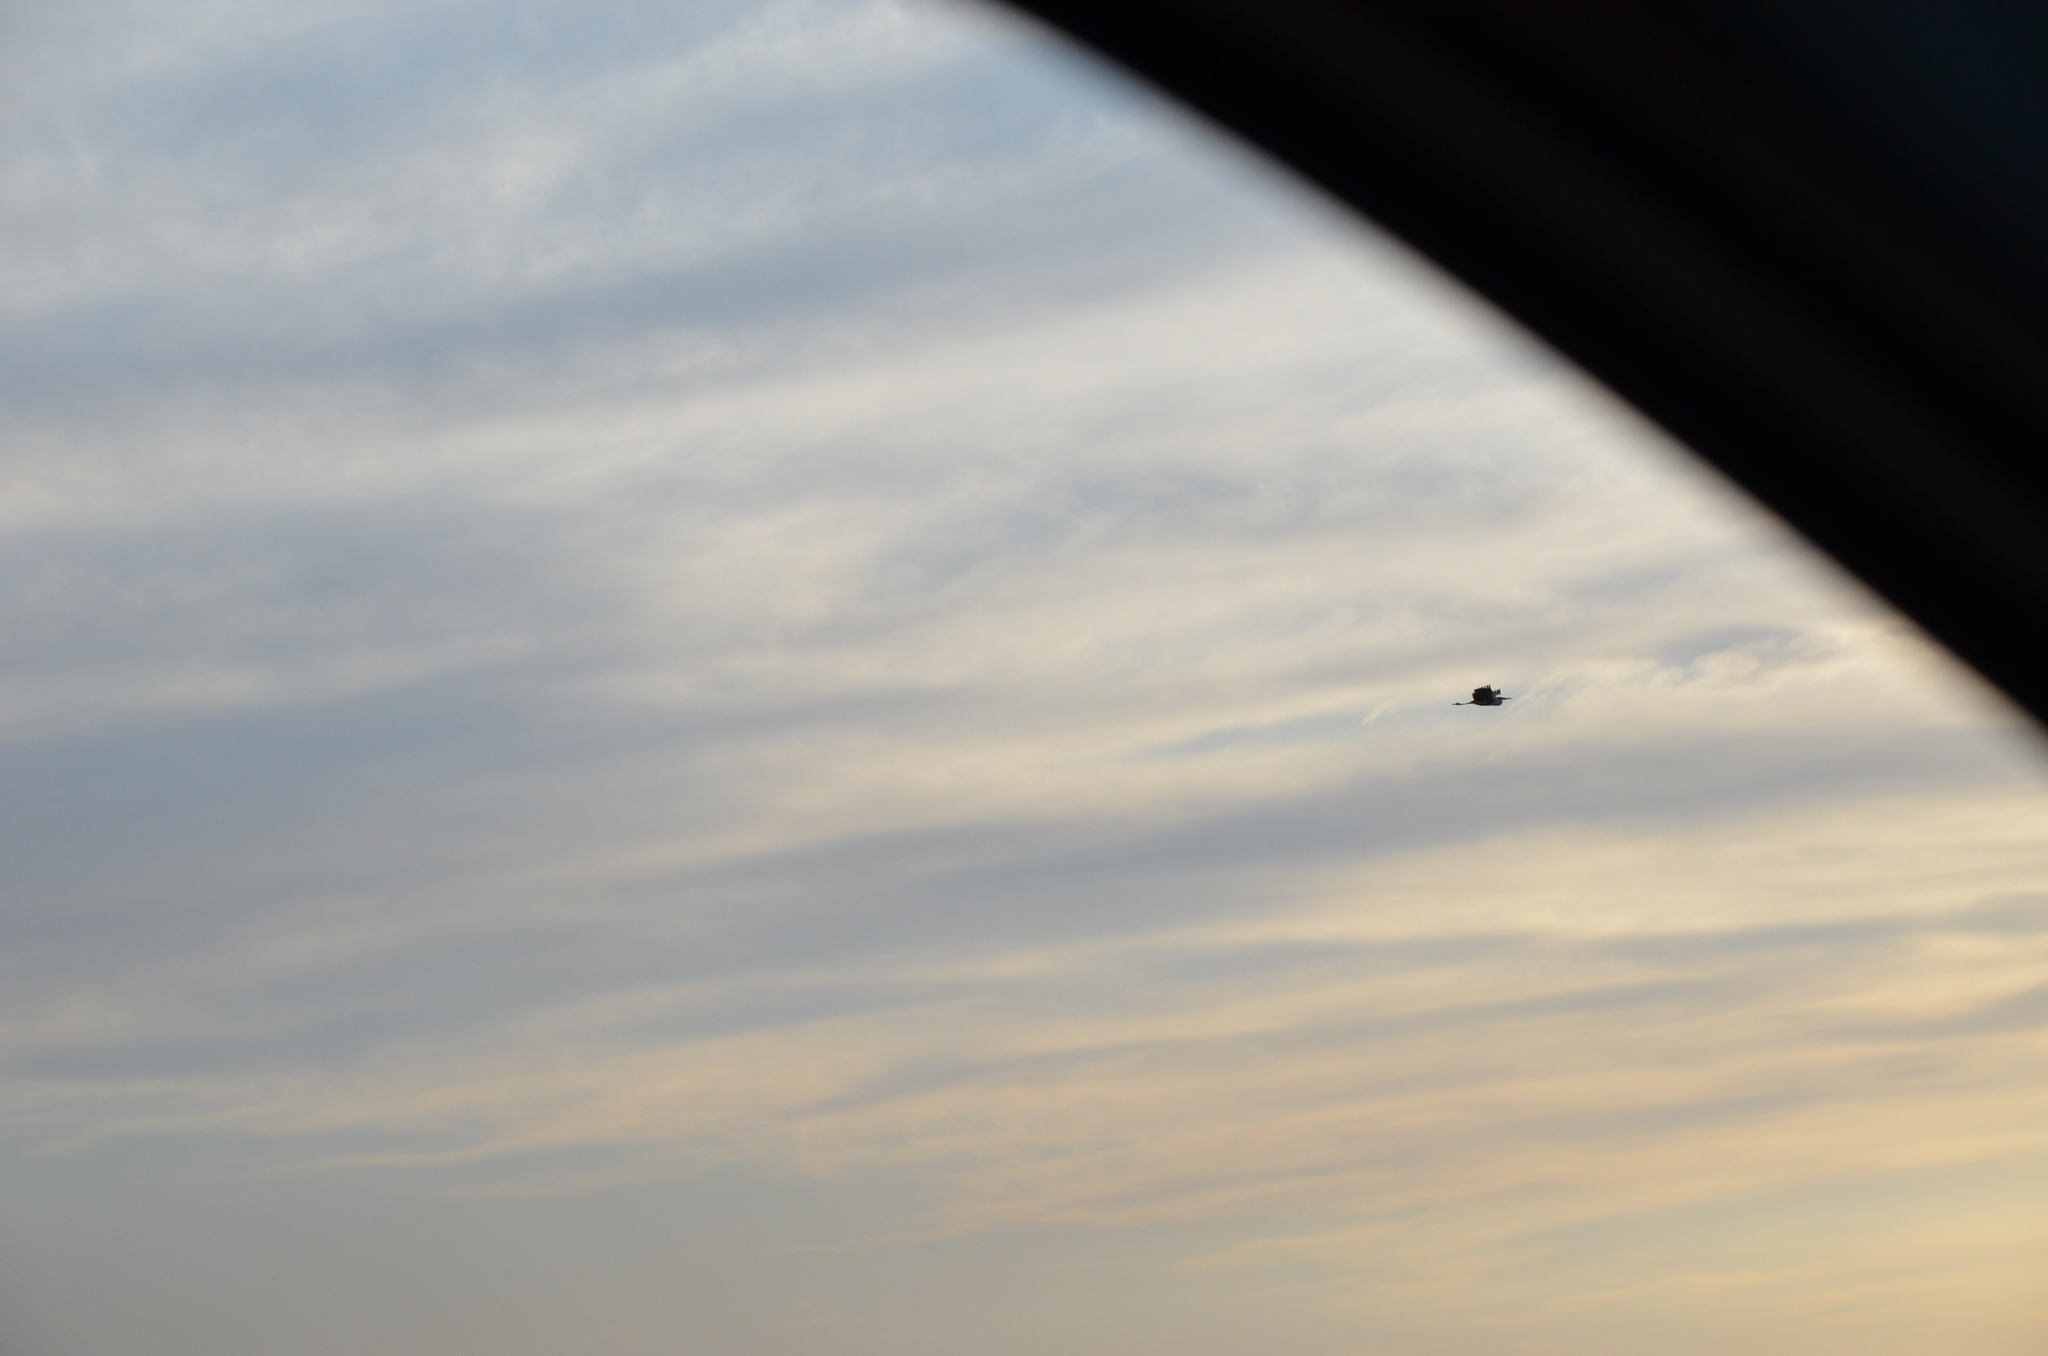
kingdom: Animalia
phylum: Chordata
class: Aves
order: Pelecaniformes
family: Ardeidae
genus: Ardea
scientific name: Ardea cocoi
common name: Cocoi heron
